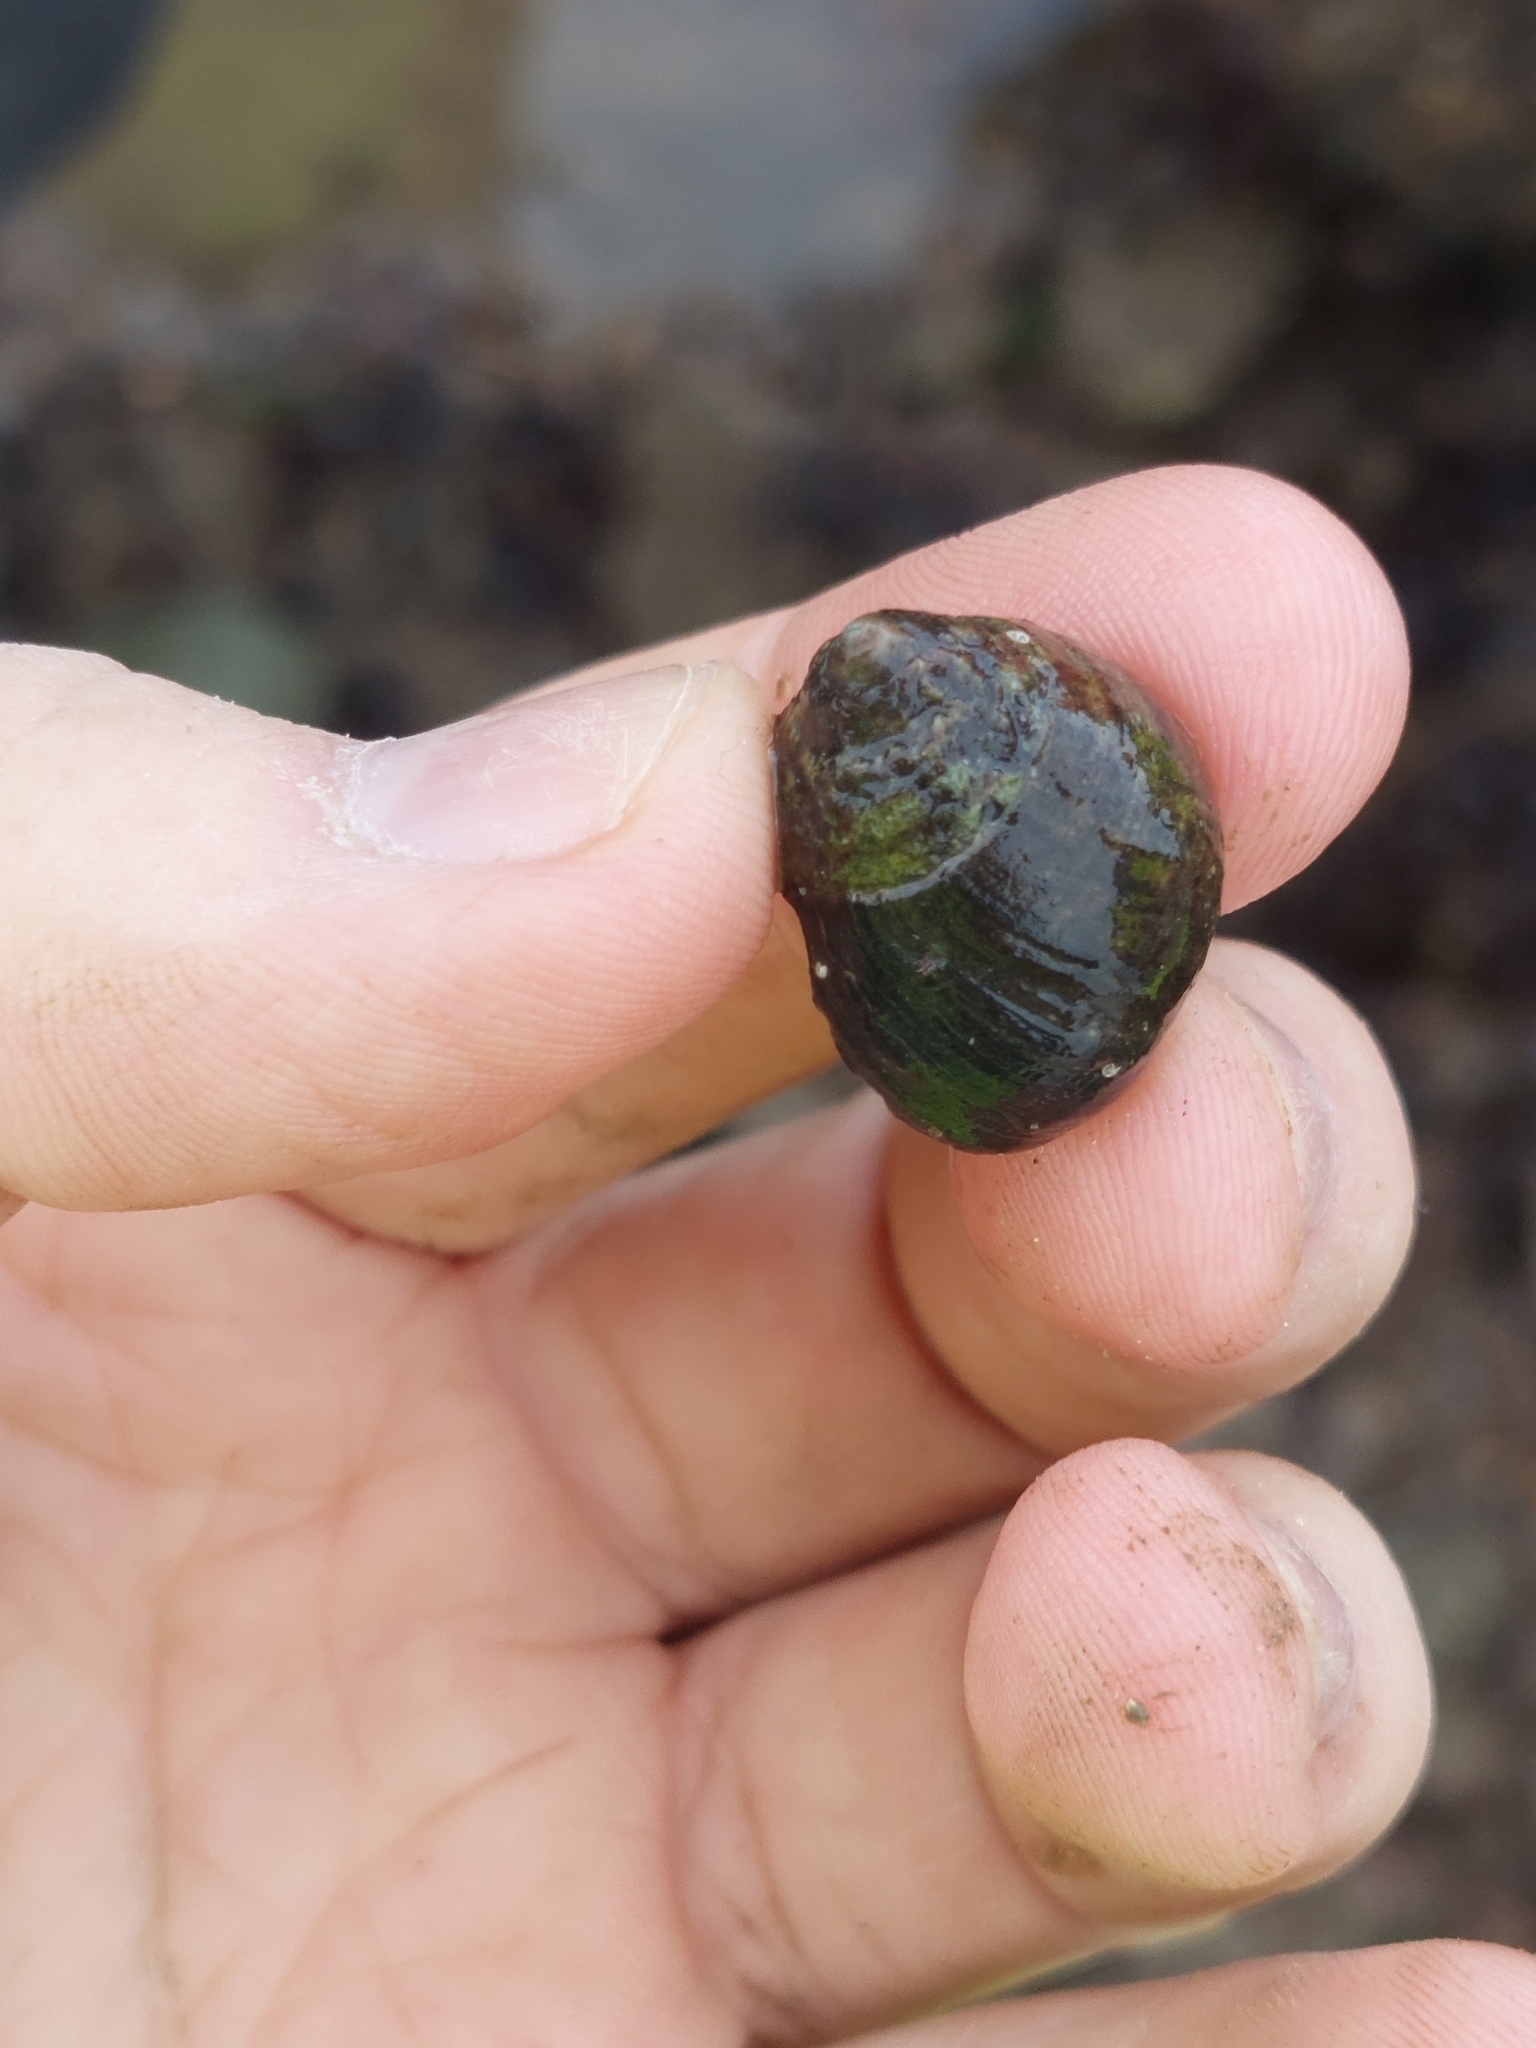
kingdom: Animalia
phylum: Mollusca
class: Gastropoda
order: Littorinimorpha
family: Littorinidae
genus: Littorina
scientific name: Littorina littorea
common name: Common periwinkle
